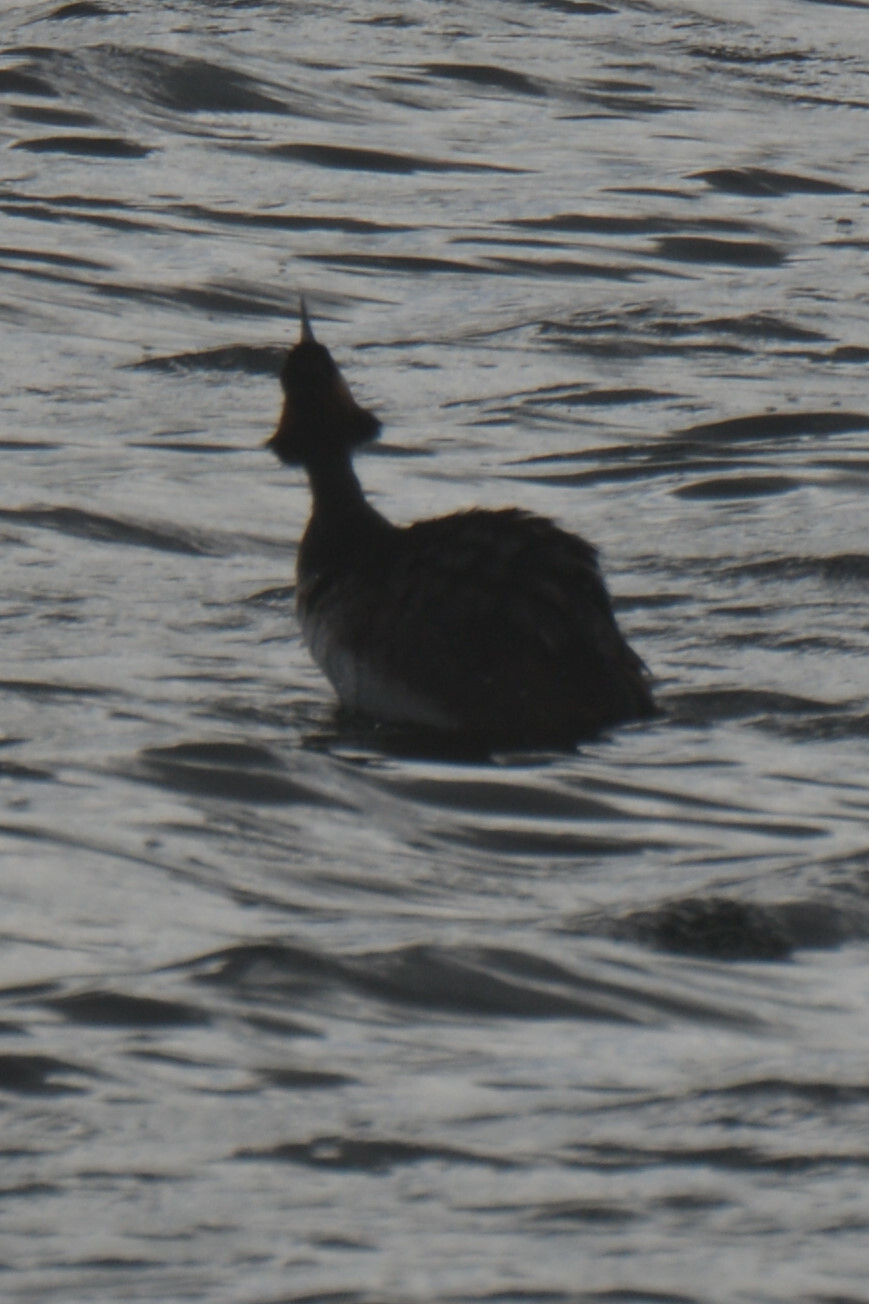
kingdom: Animalia
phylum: Chordata
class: Aves
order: Podicipediformes
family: Podicipedidae
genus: Podiceps
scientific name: Podiceps cristatus
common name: Great crested grebe
